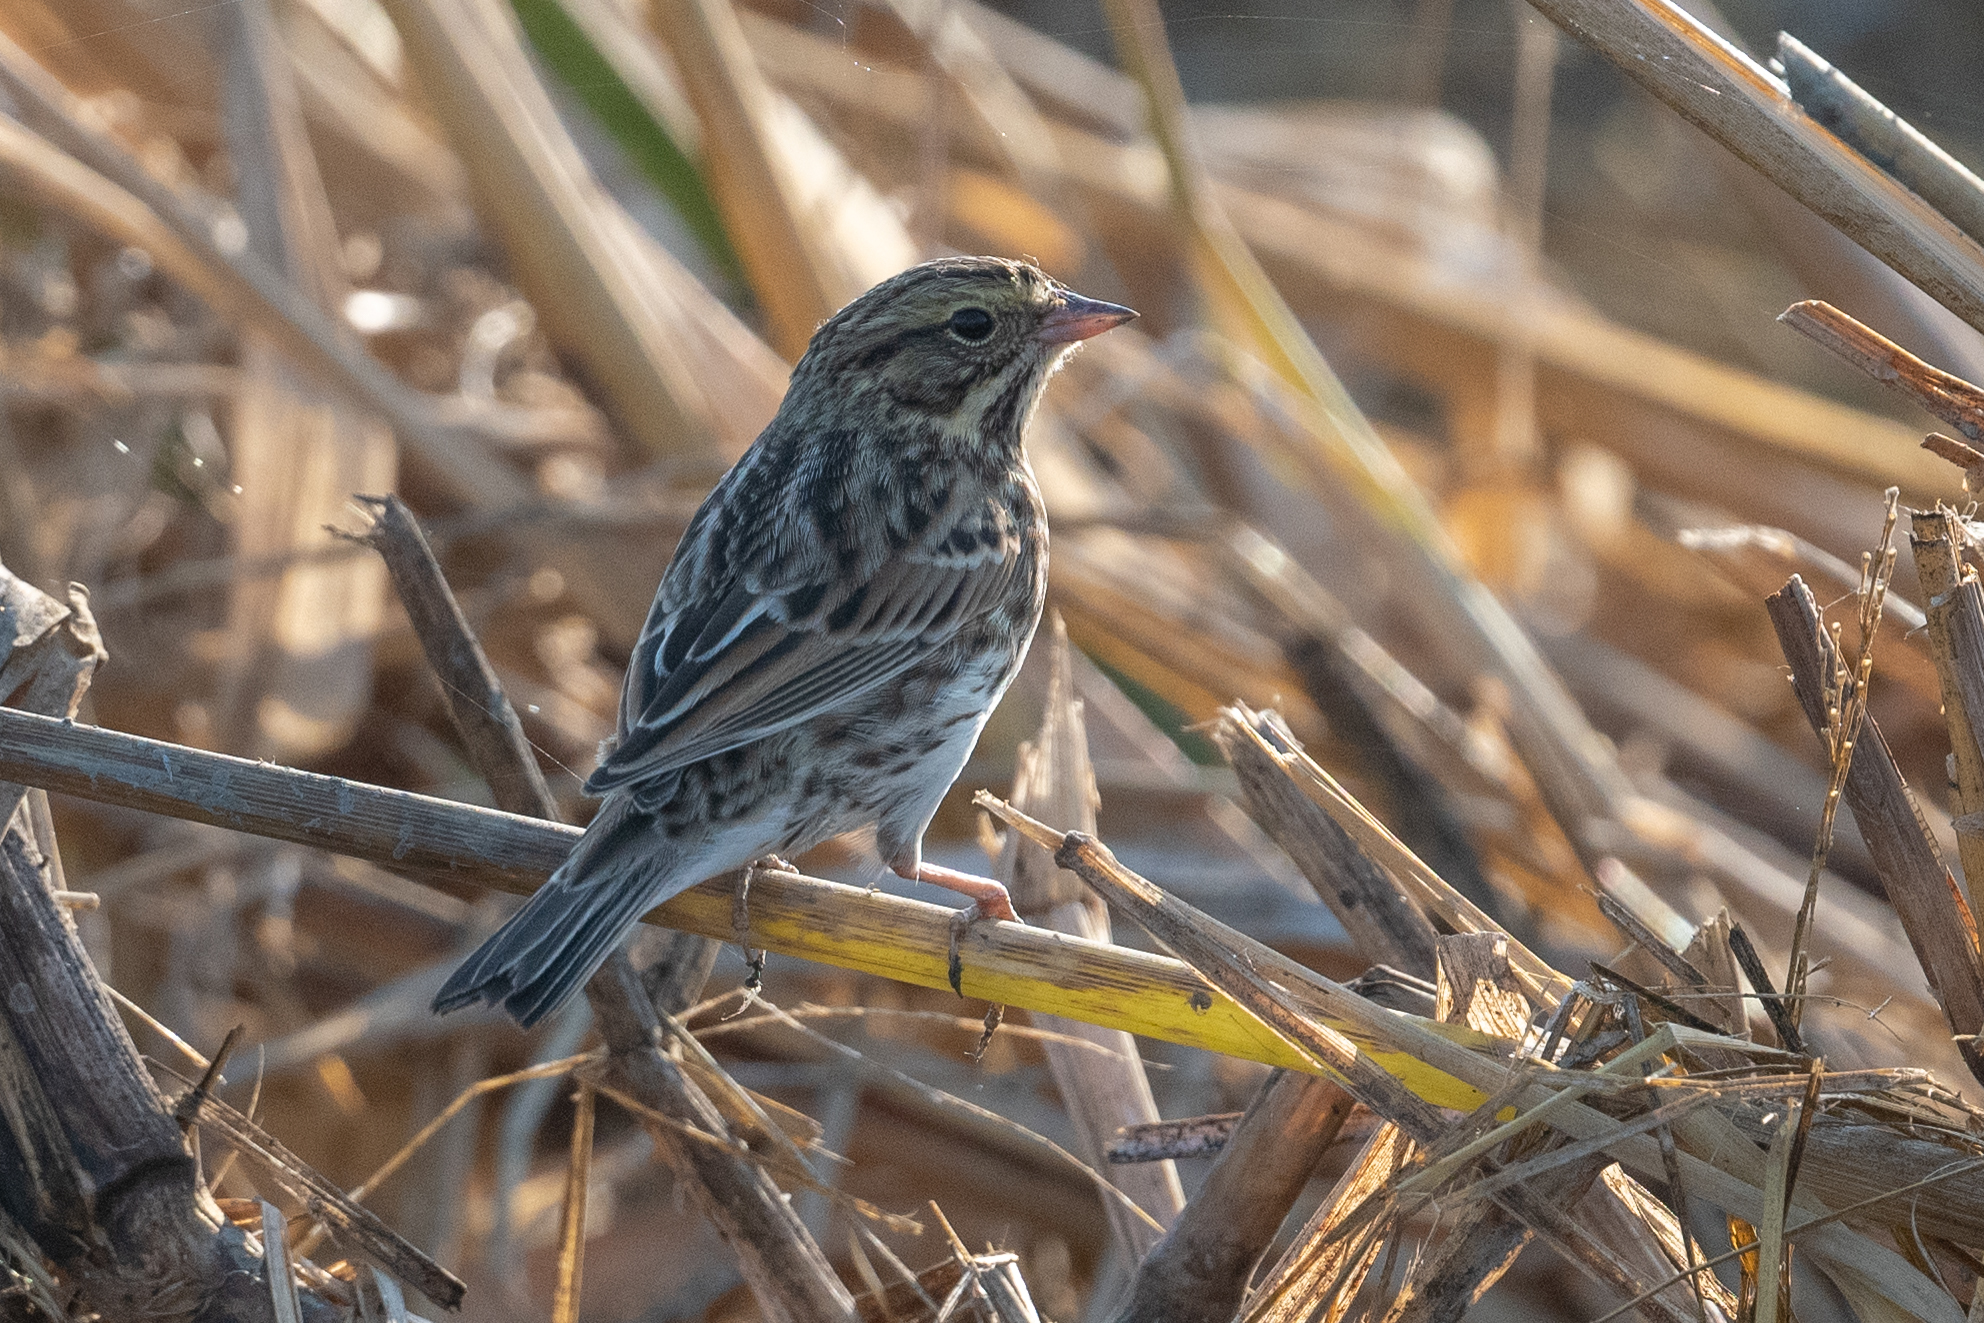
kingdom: Animalia
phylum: Chordata
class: Aves
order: Passeriformes
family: Passerellidae
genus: Passerculus
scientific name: Passerculus sandwichensis
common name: Savannah sparrow
